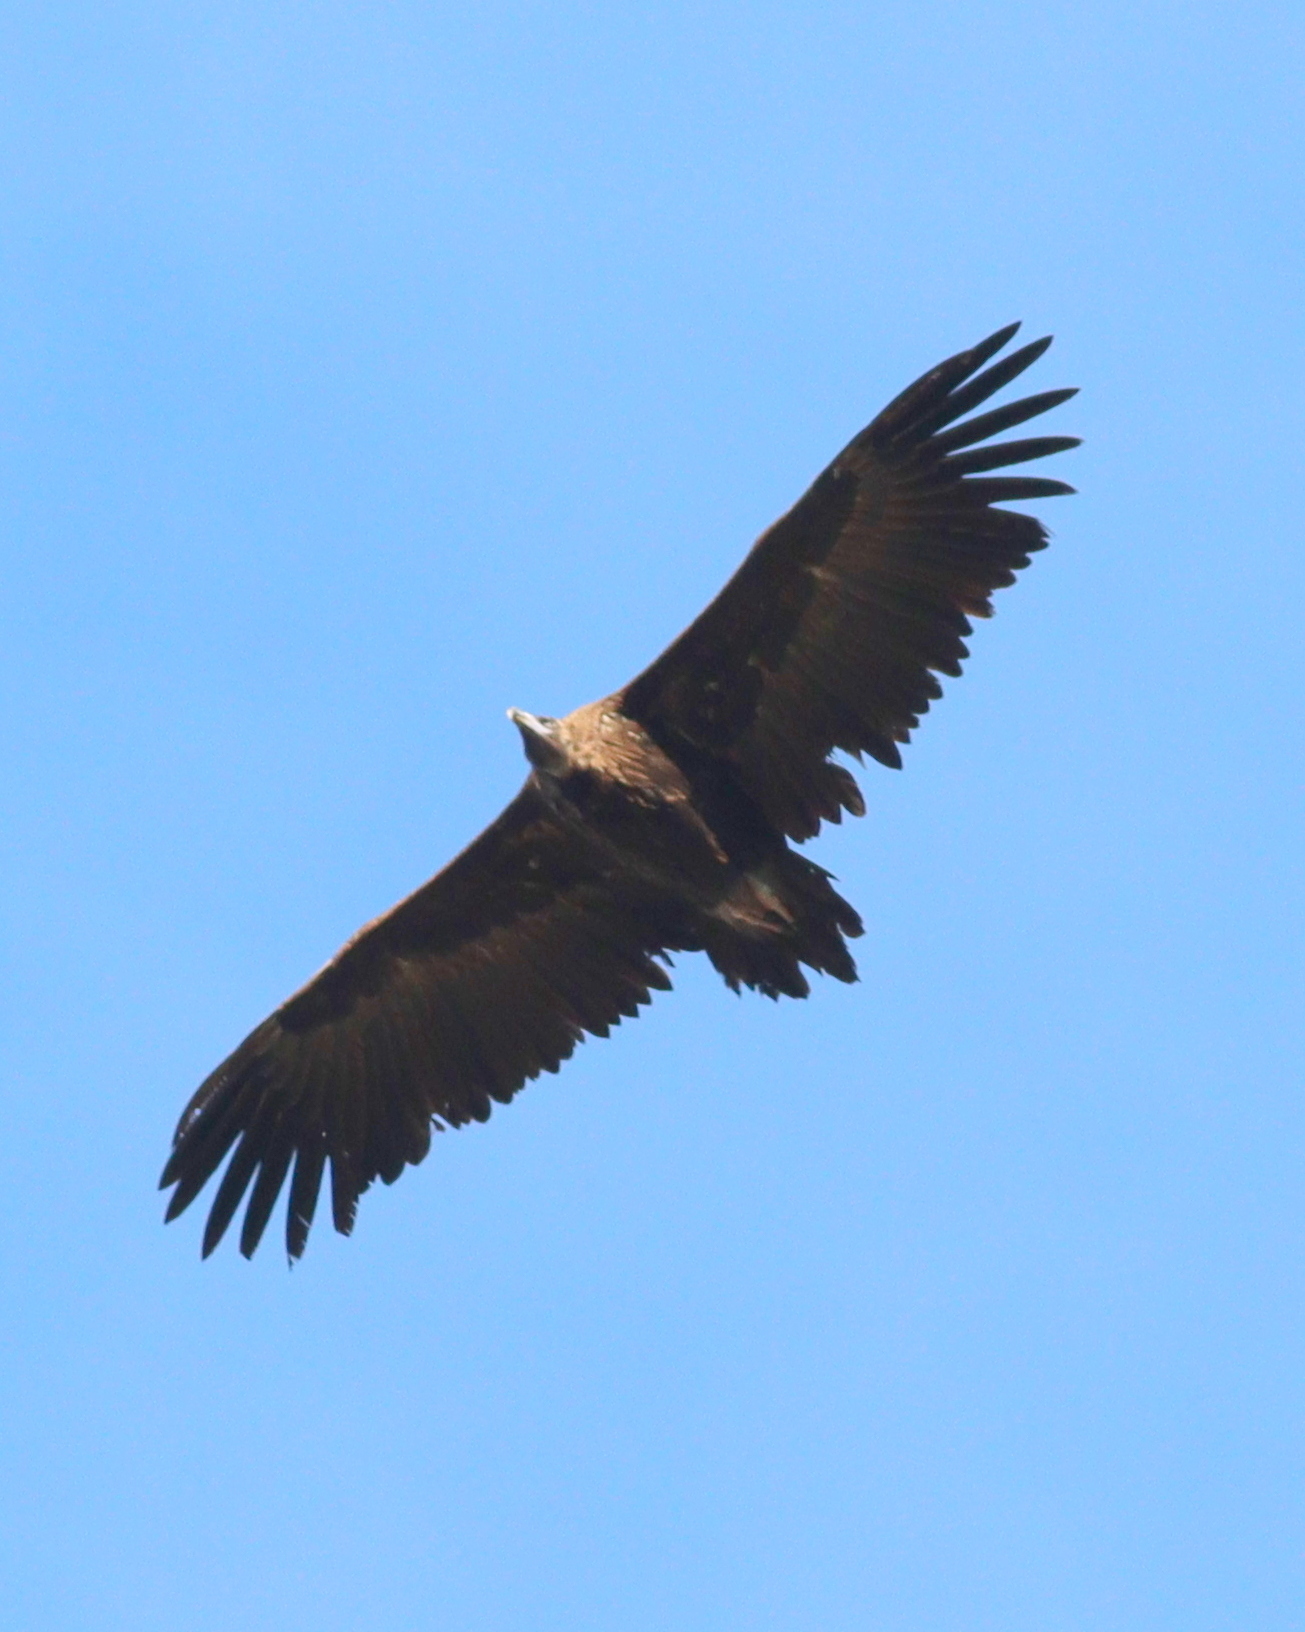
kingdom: Animalia
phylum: Chordata
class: Aves
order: Accipitriformes
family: Accipitridae
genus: Aegypius
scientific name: Aegypius monachus
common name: Cinereous vulture
